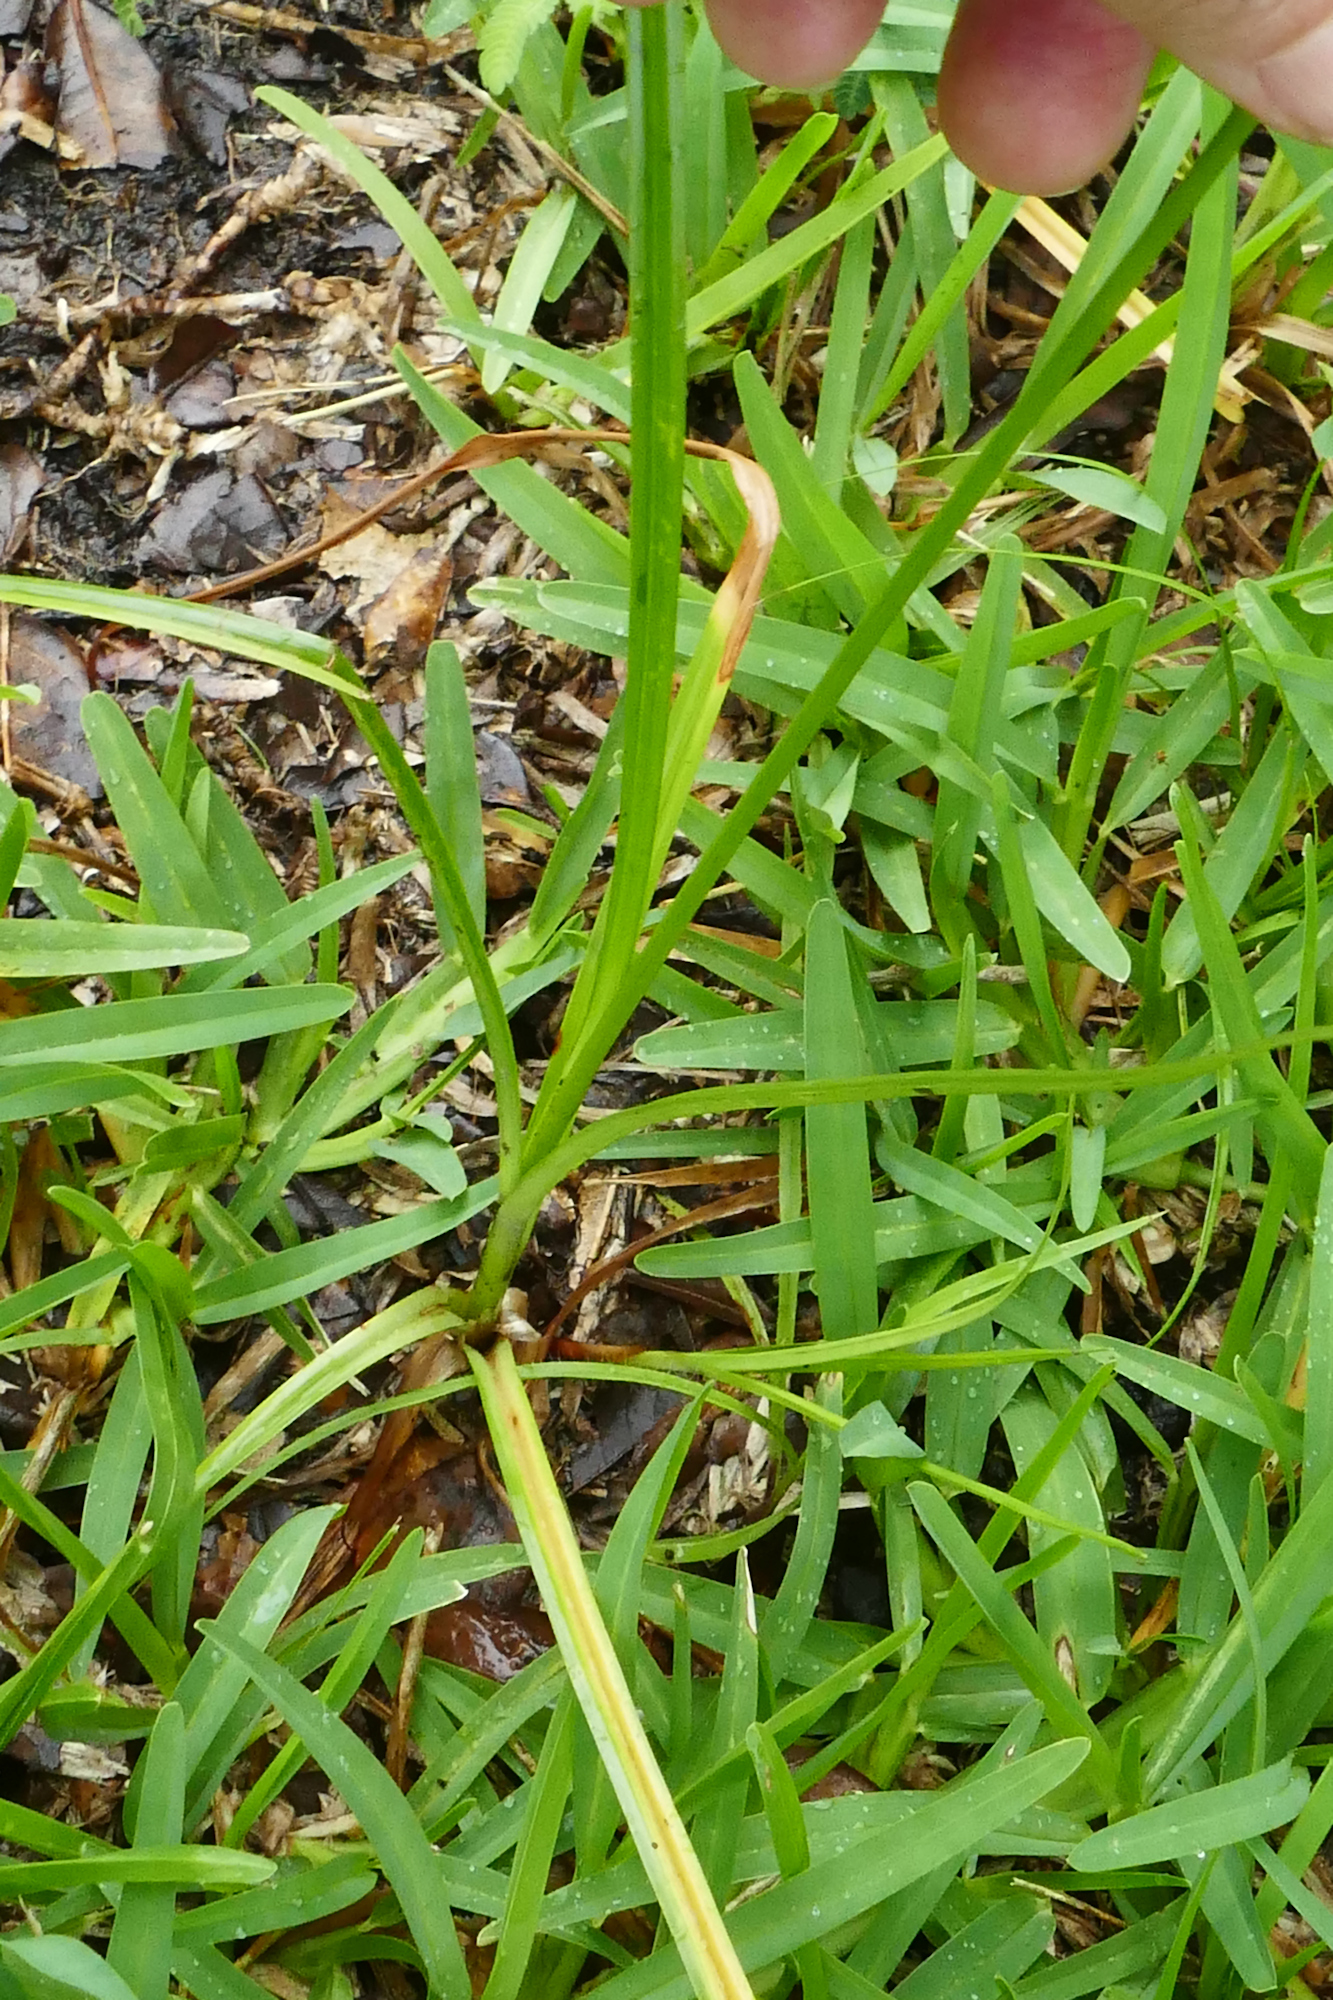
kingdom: Plantae
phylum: Tracheophyta
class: Liliopsida
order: Poales
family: Cyperaceae
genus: Cyperus
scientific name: Cyperus retrorsus
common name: Pinebarren flat sedge
